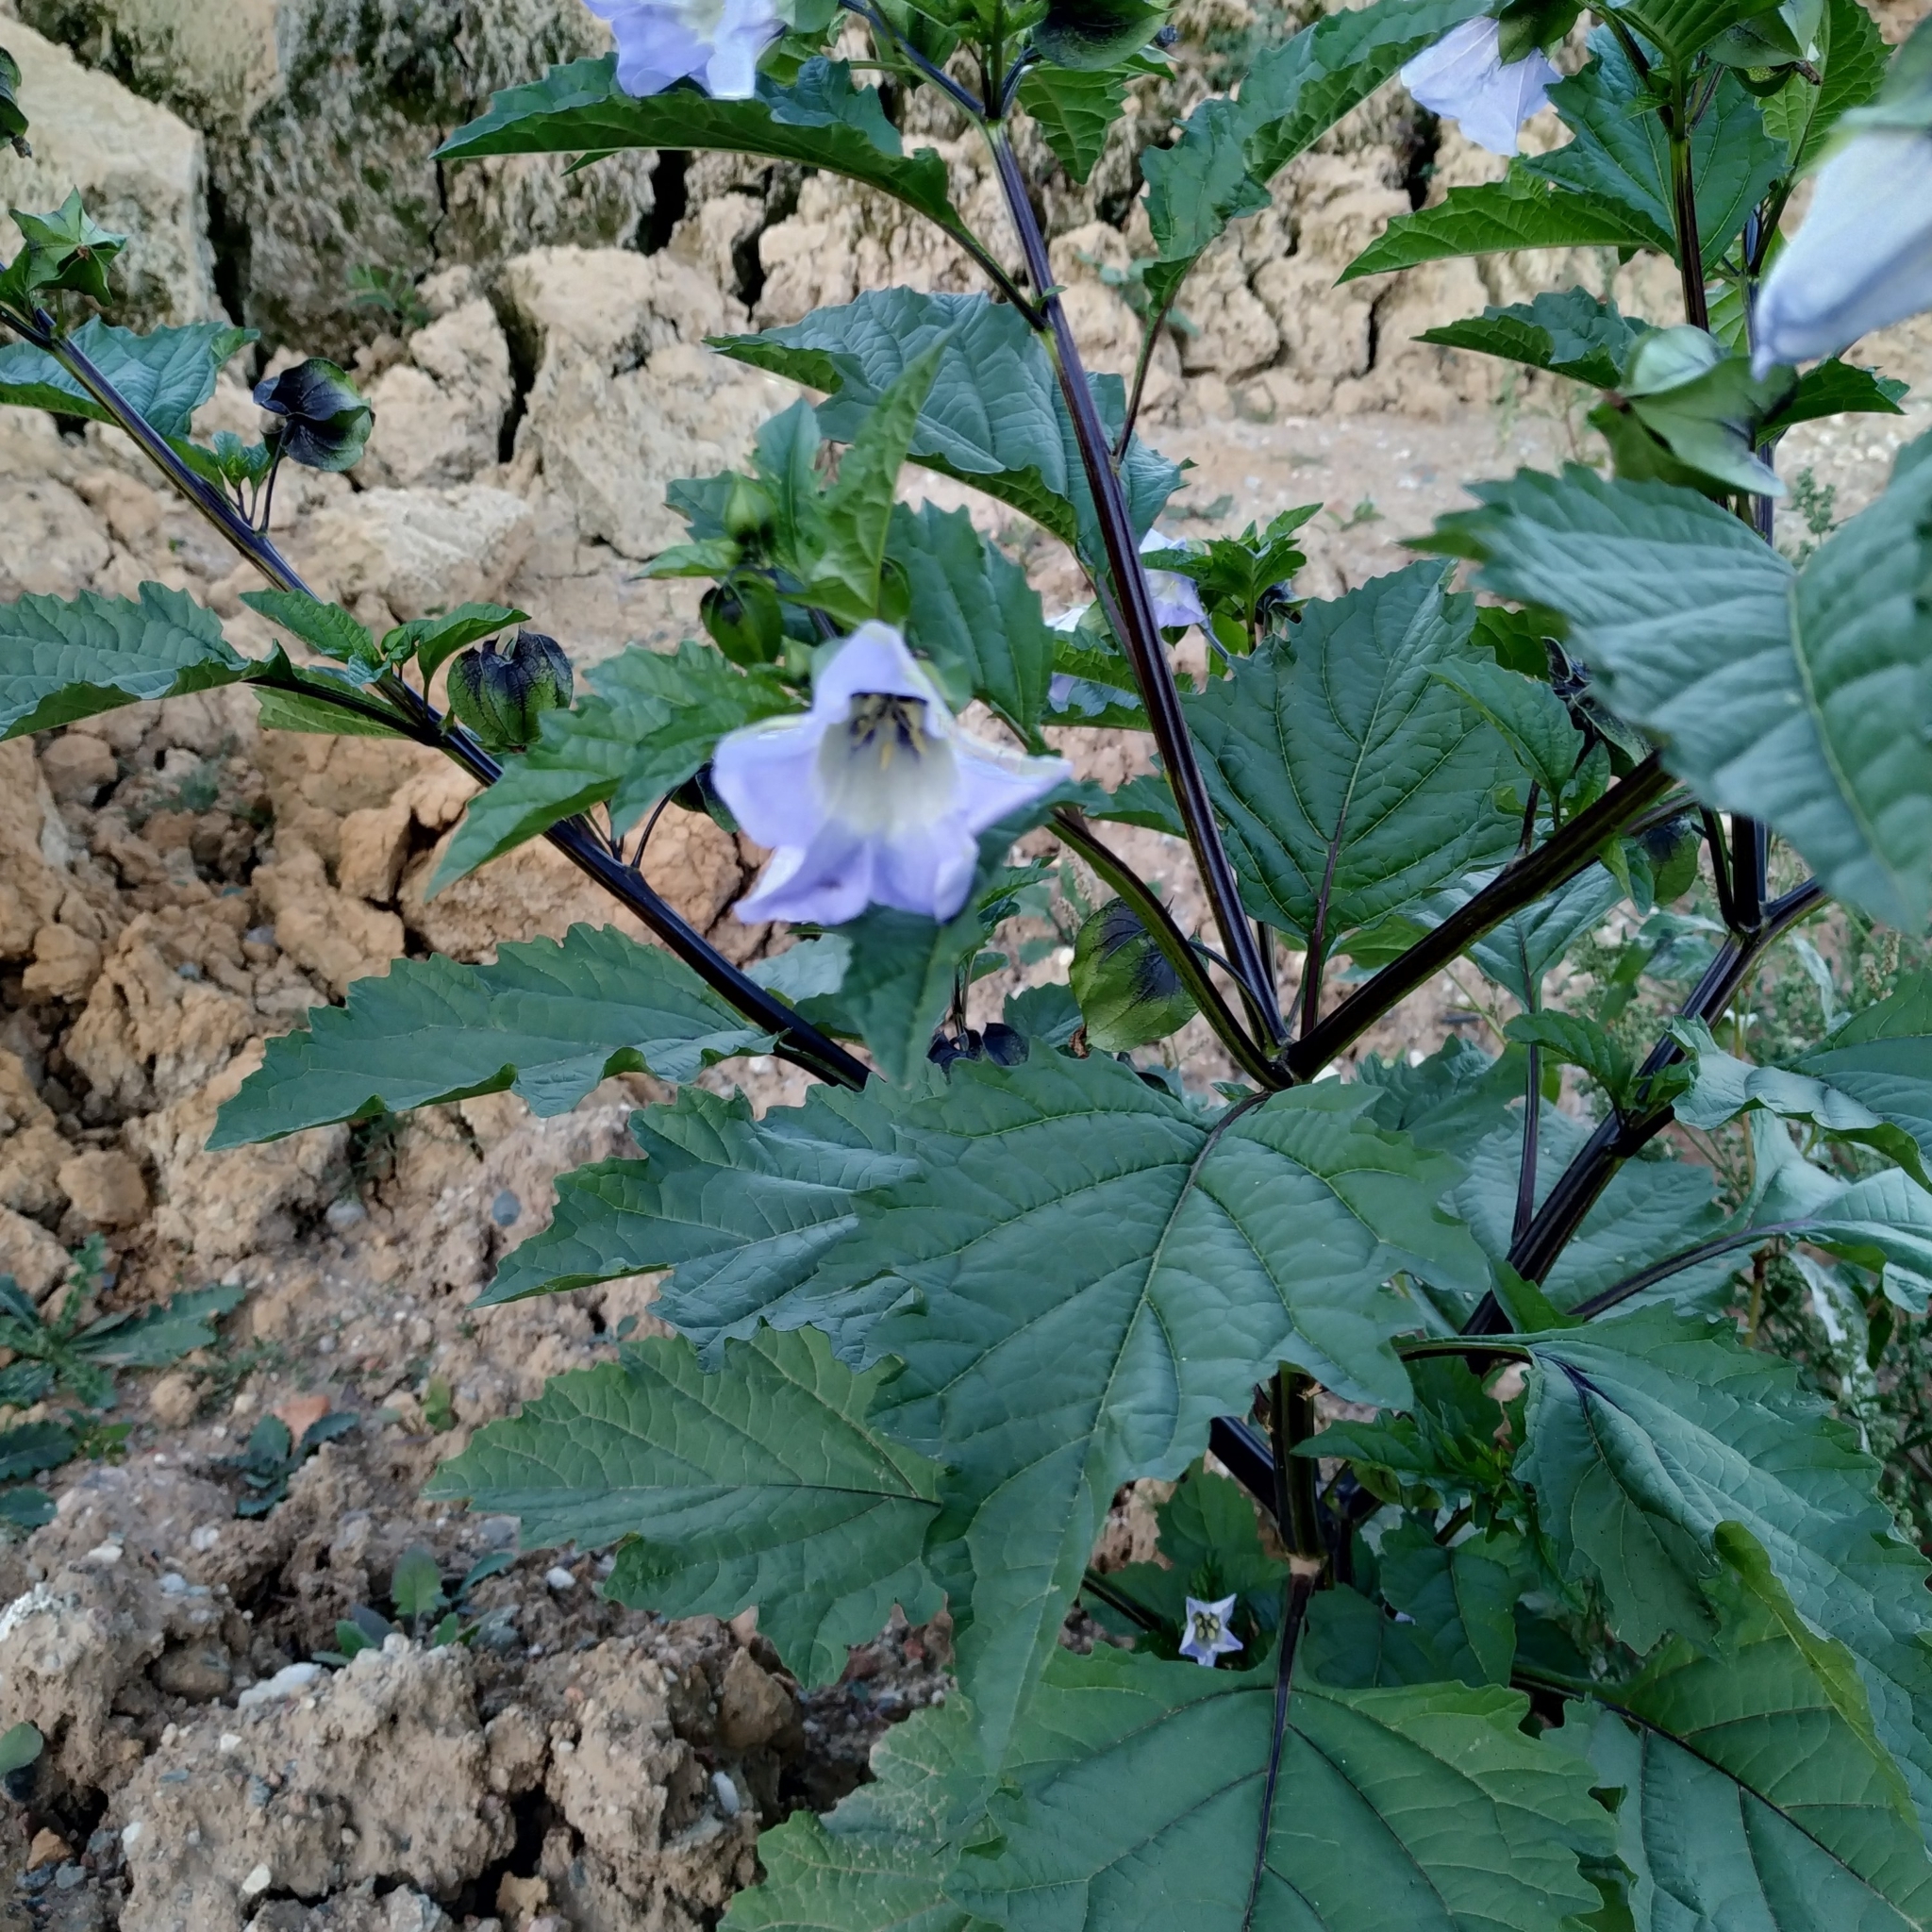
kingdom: Plantae
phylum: Tracheophyta
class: Magnoliopsida
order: Solanales
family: Solanaceae
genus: Nicandra
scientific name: Nicandra physalodes
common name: Apple-of-peru
